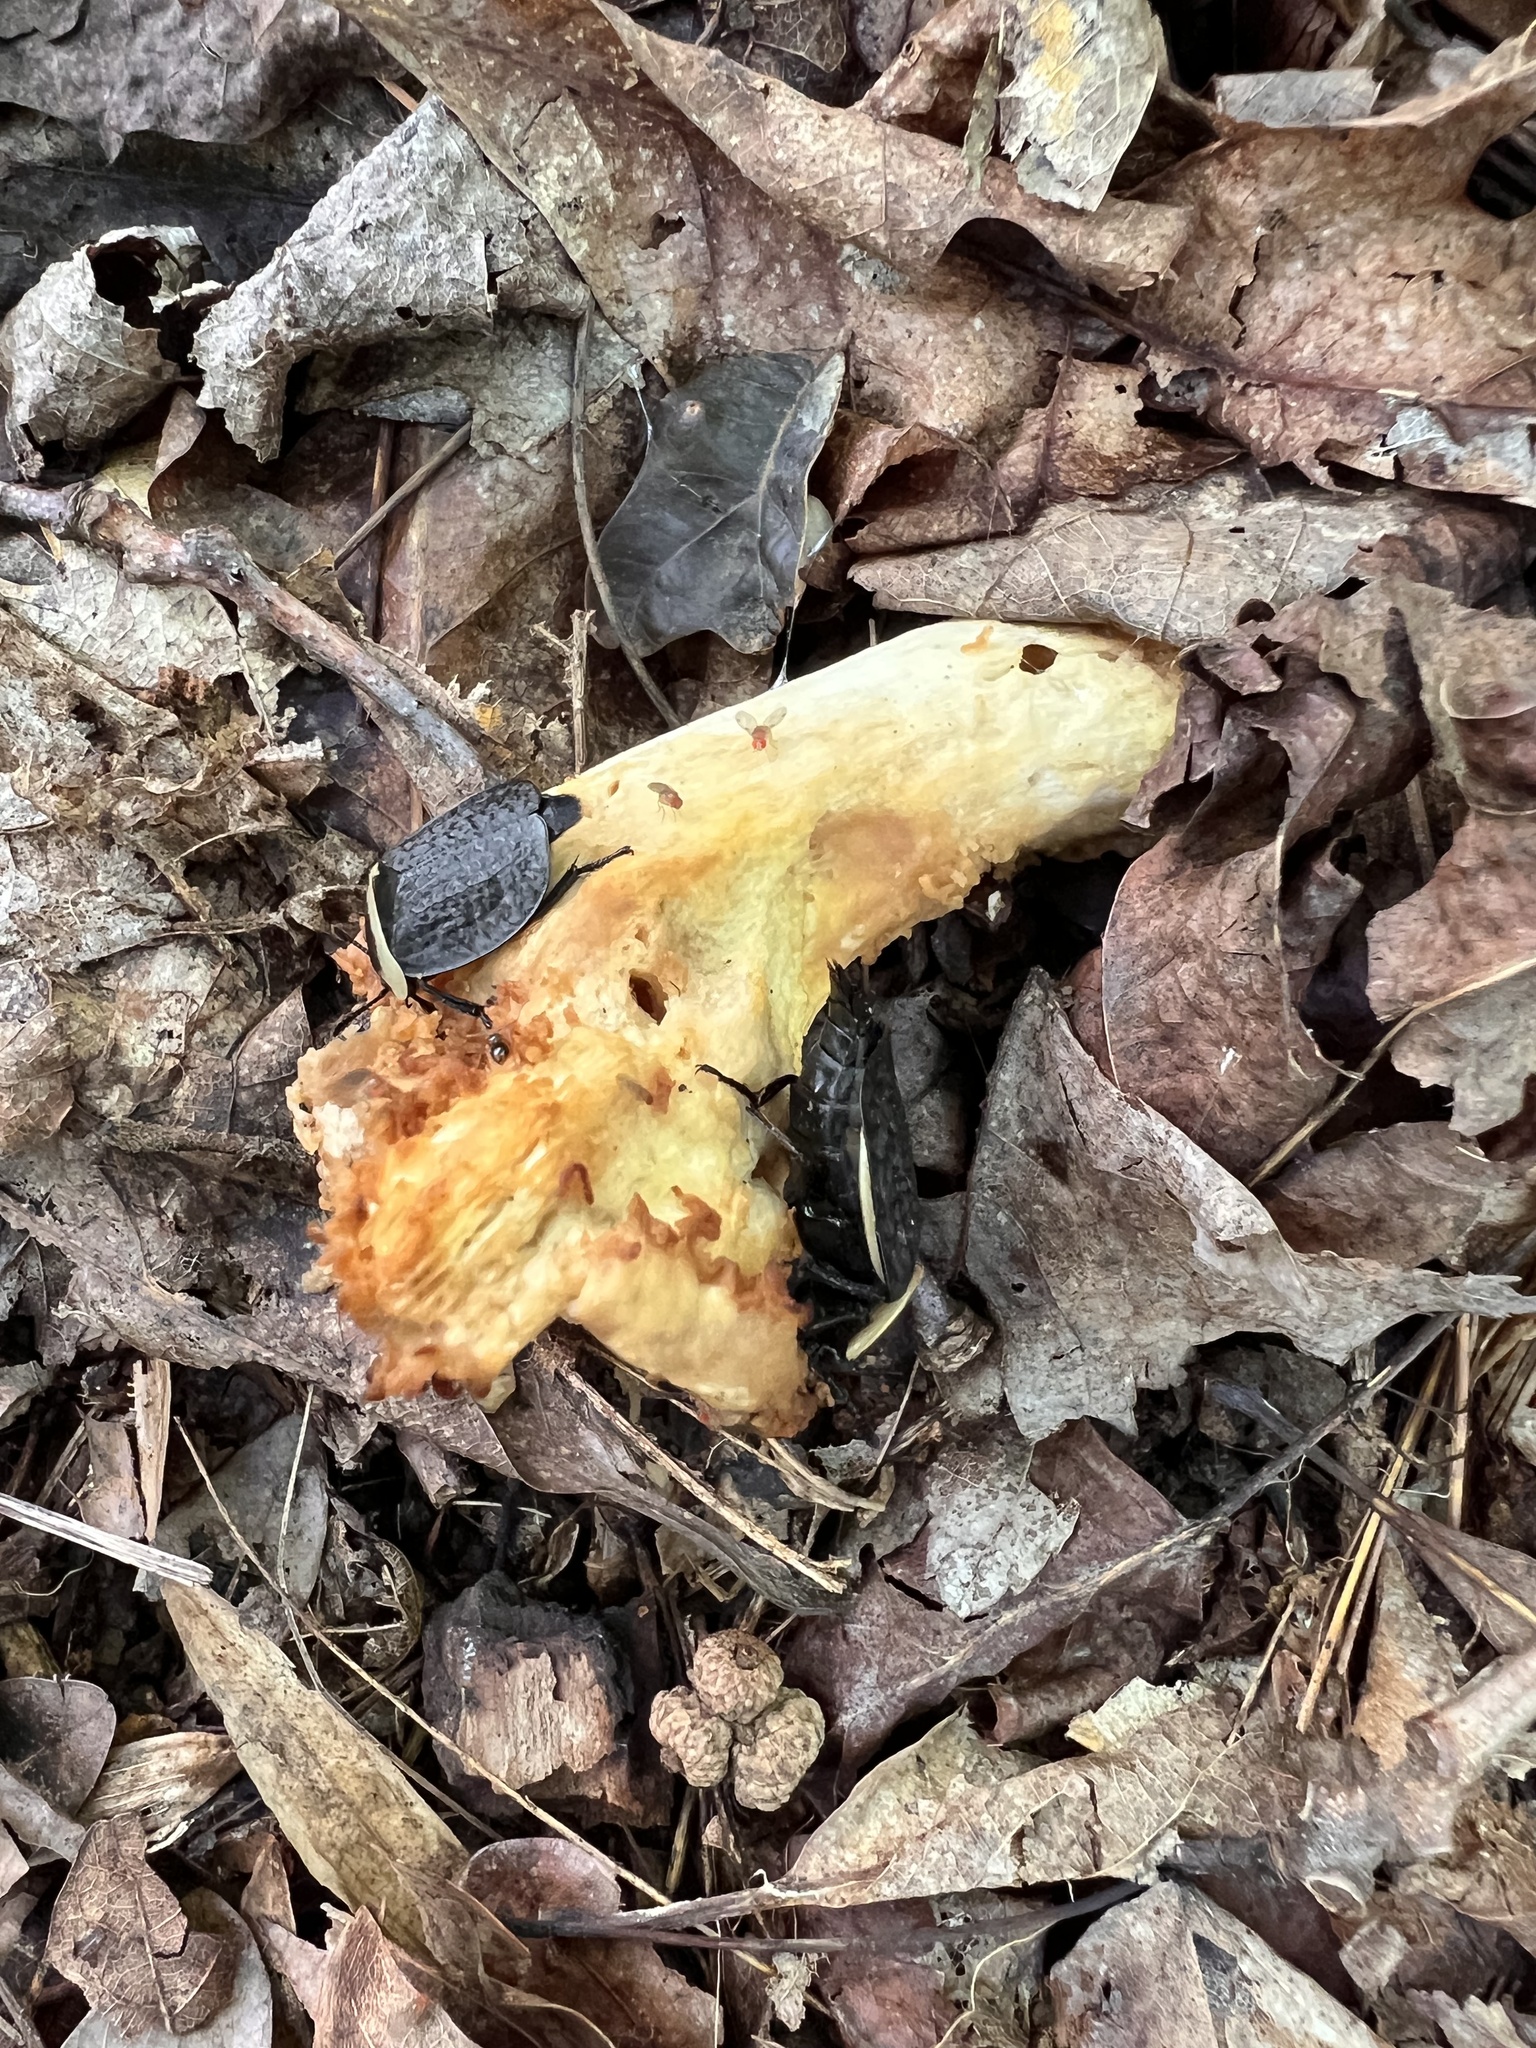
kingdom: Animalia
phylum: Arthropoda
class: Insecta
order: Coleoptera
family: Staphylinidae
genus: Necrophila
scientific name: Necrophila americana
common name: American carrion beetle
